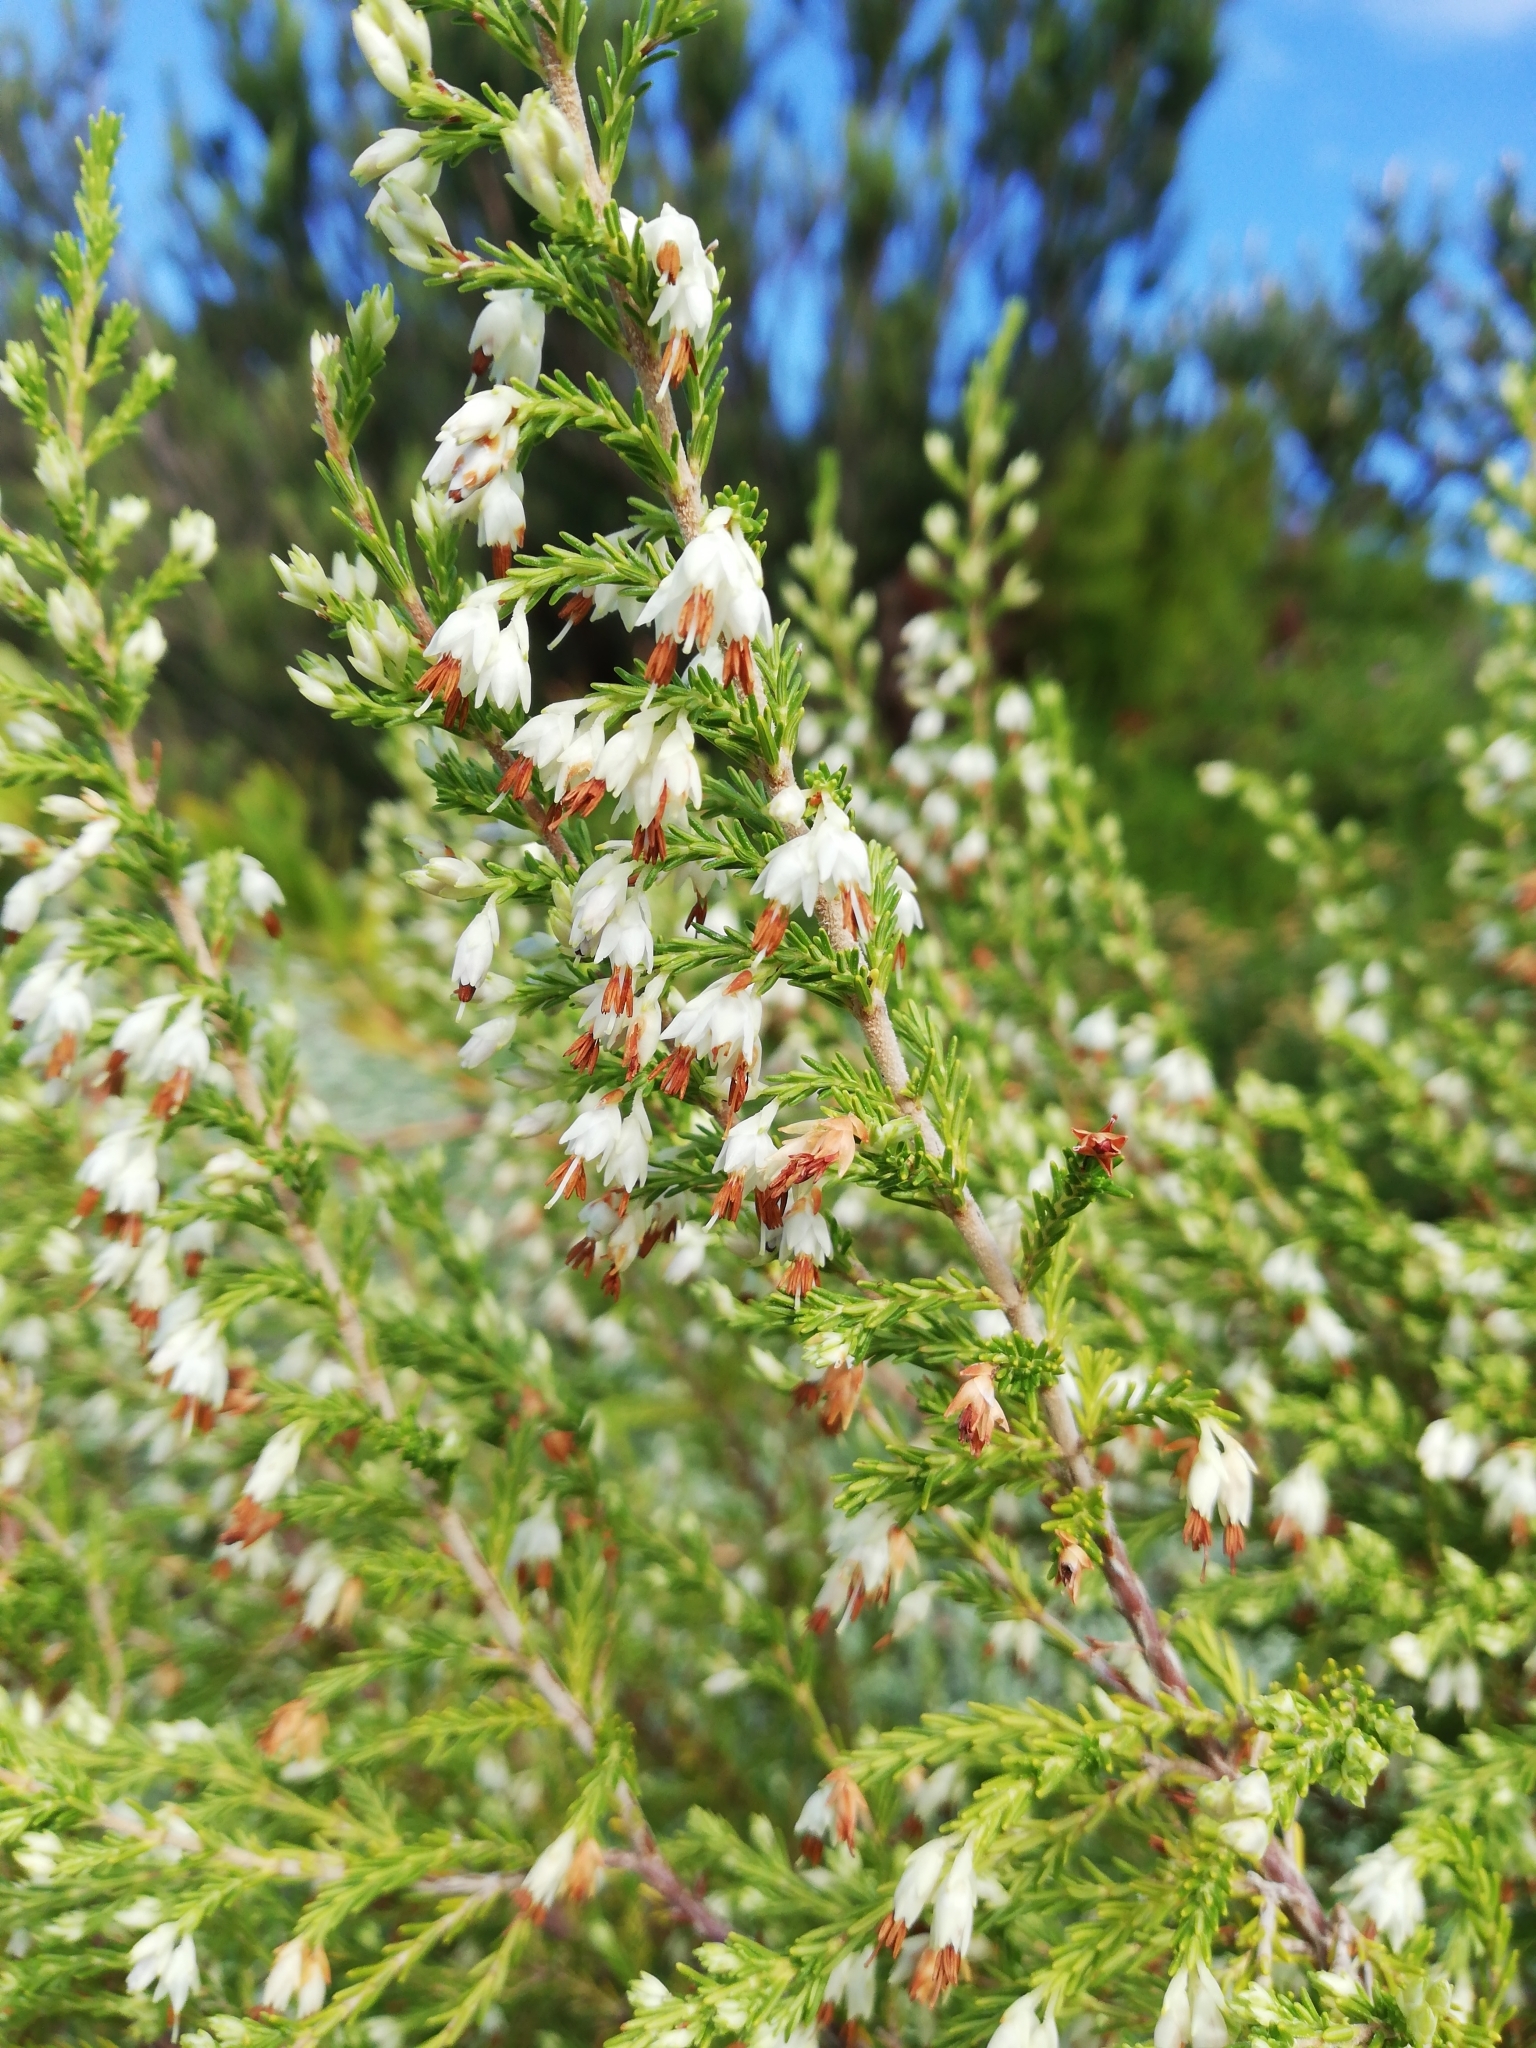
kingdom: Plantae
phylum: Tracheophyta
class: Magnoliopsida
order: Ericales
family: Ericaceae
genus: Erica
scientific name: Erica imbricata
